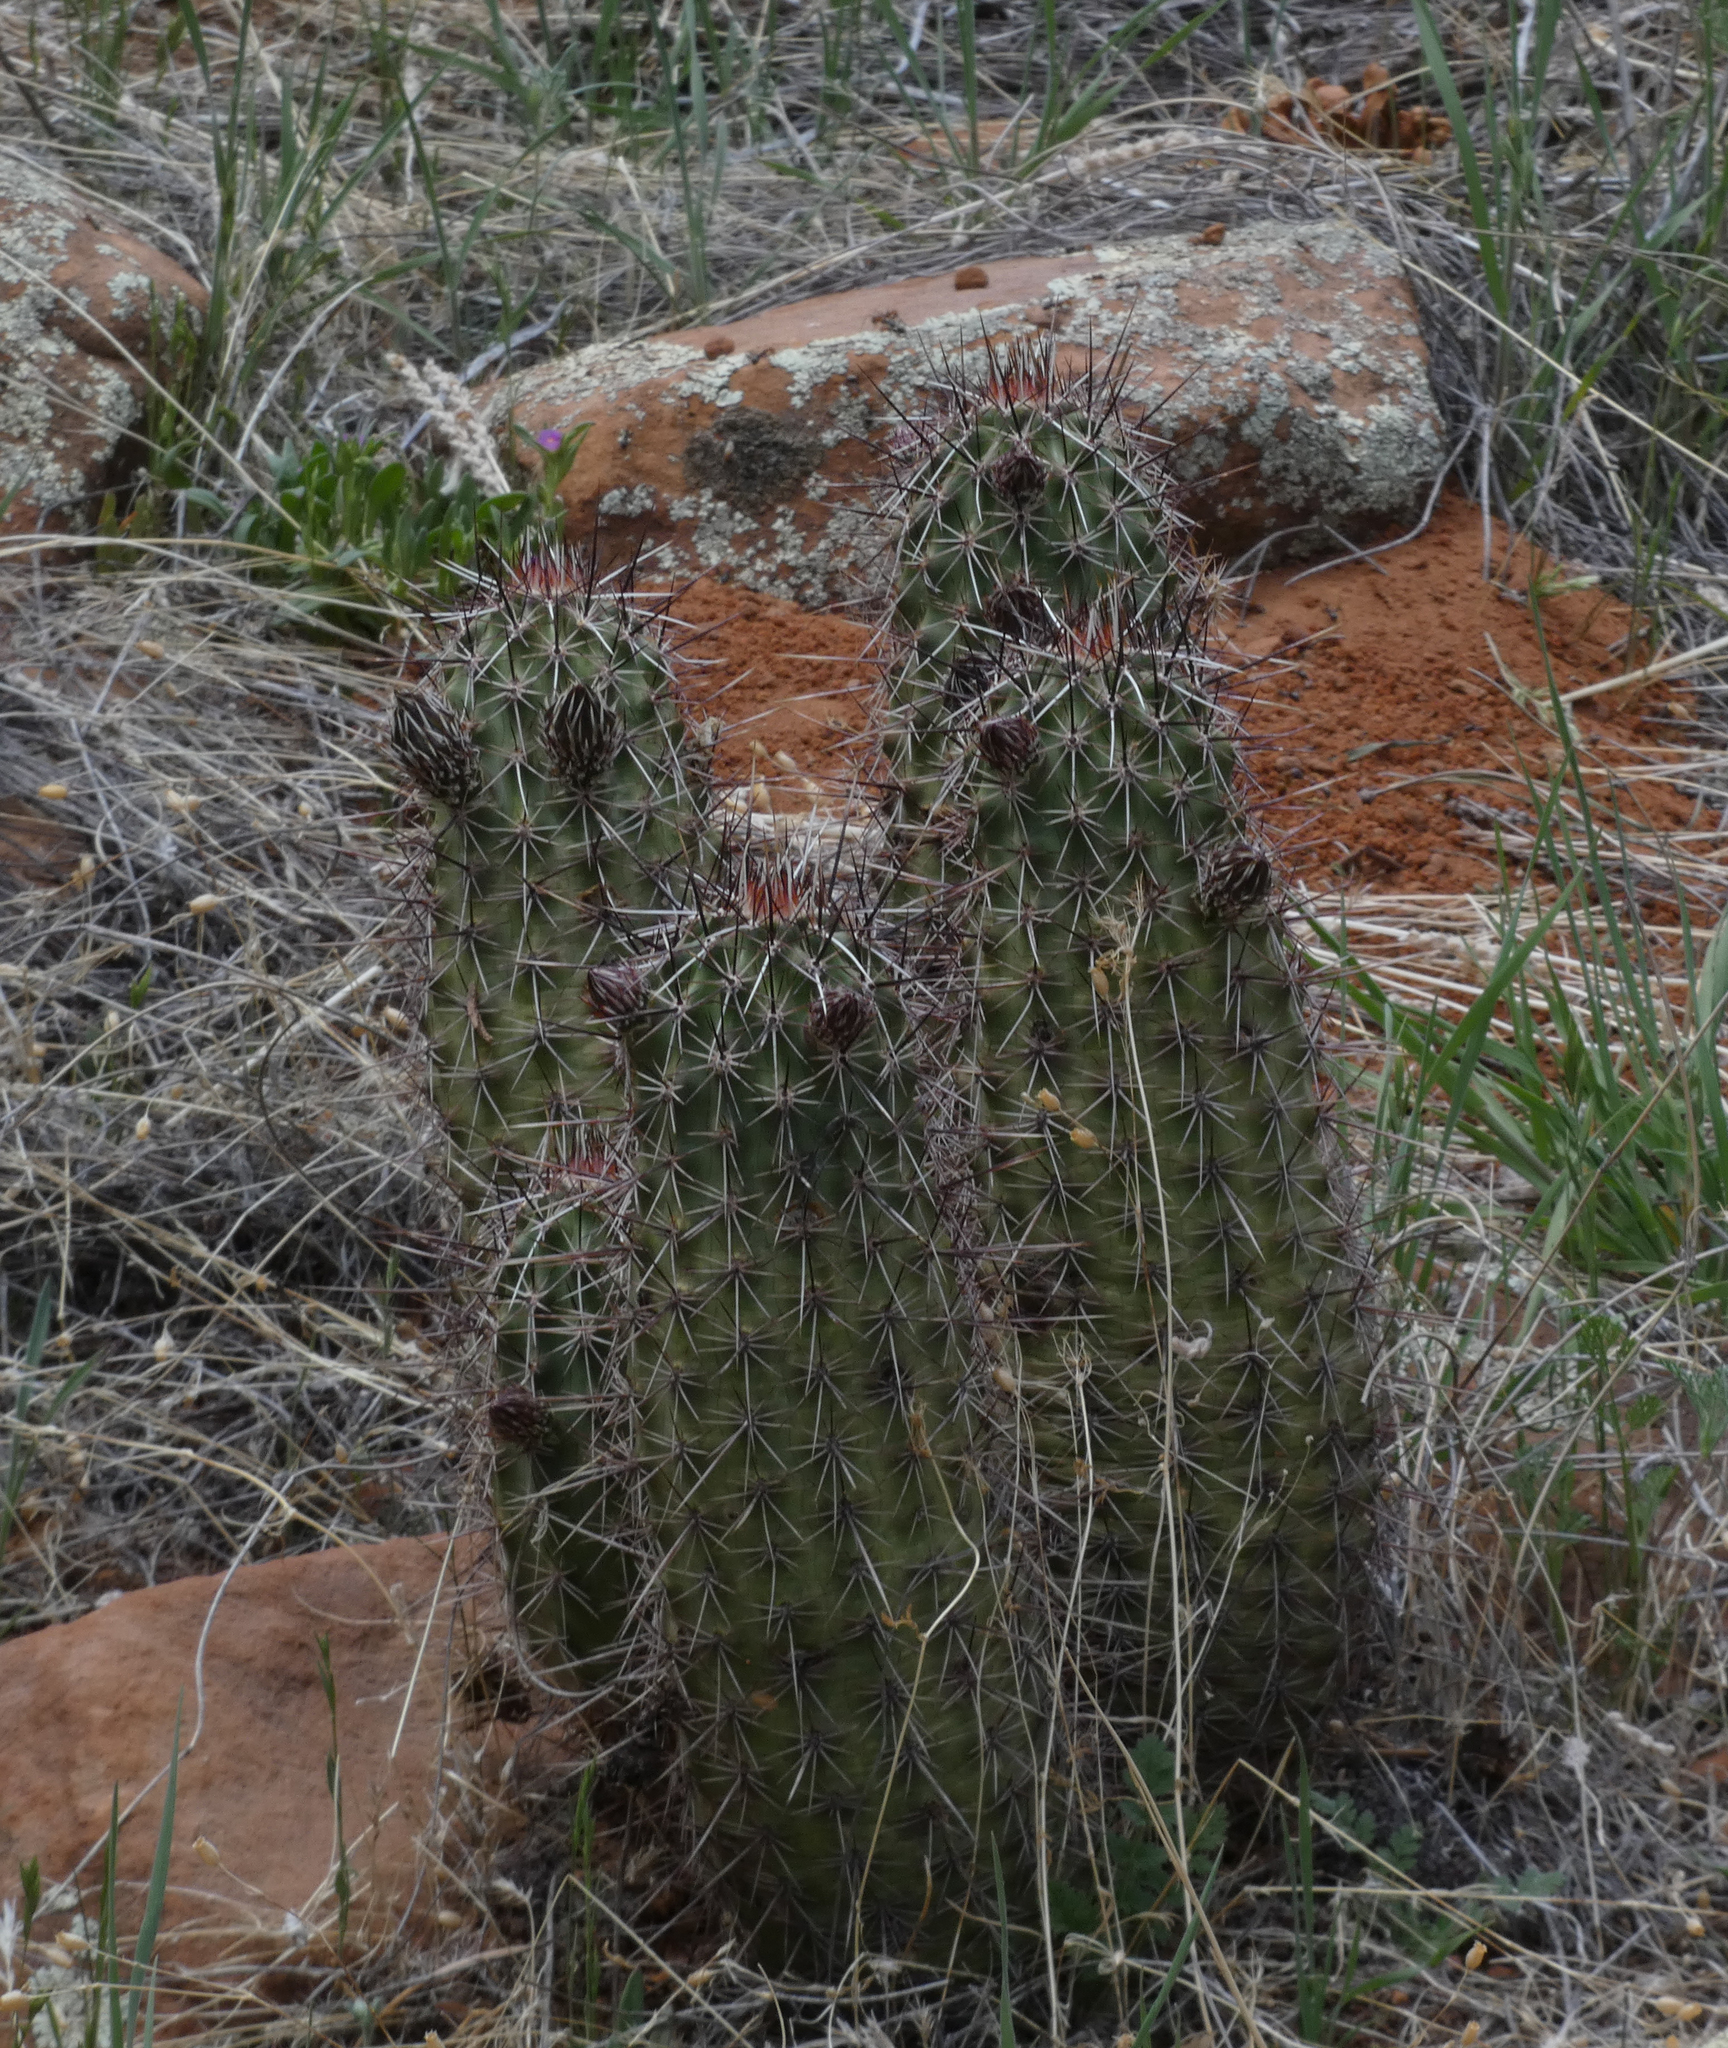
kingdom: Plantae
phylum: Tracheophyta
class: Magnoliopsida
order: Caryophyllales
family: Cactaceae
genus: Echinocereus
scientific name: Echinocereus fasciculatus
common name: Bundle hedgehog
